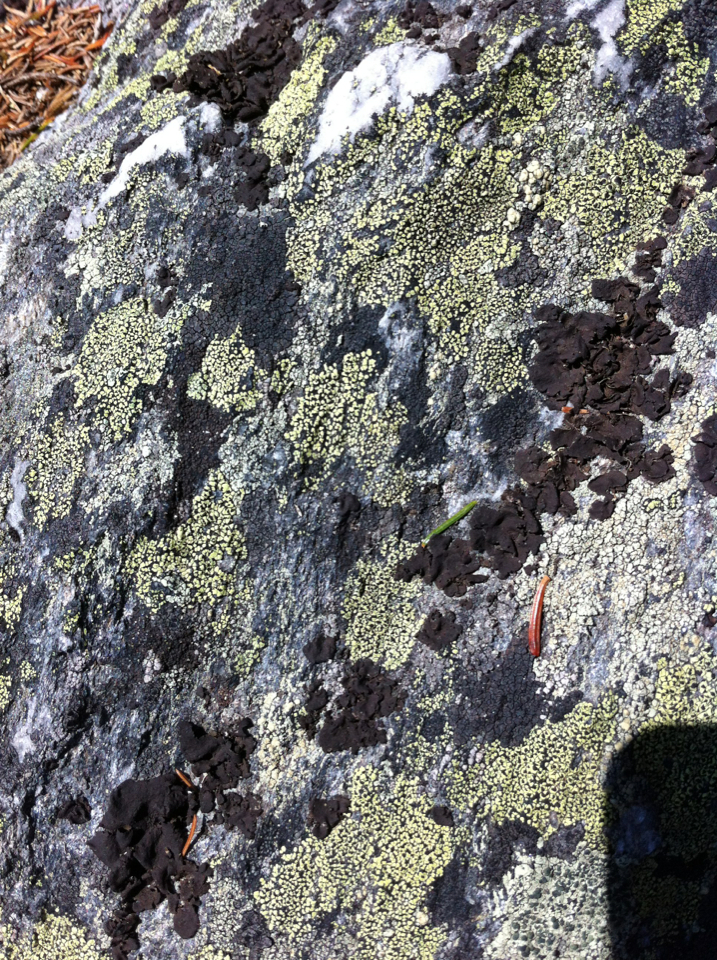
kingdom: Fungi
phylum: Ascomycota
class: Lecanoromycetes
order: Rhizocarpales
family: Rhizocarpaceae
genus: Rhizocarpon
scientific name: Rhizocarpon geographicum
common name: Yellow map lichen
